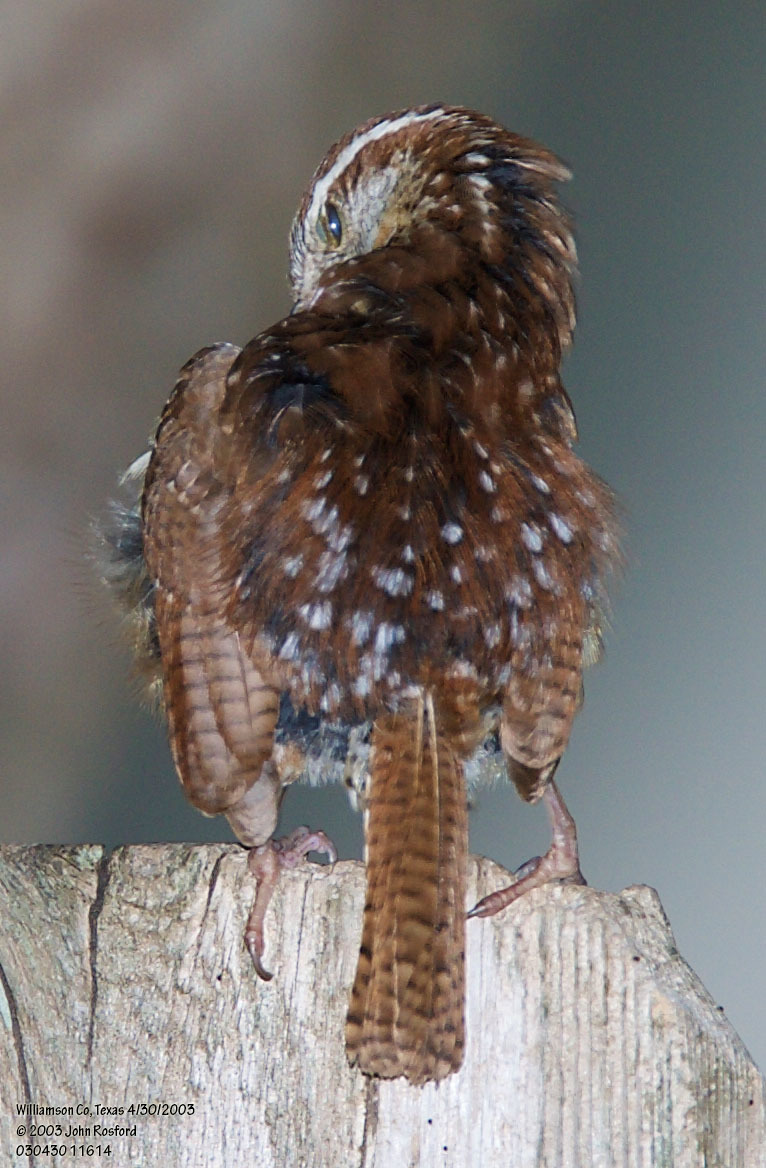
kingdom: Animalia
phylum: Chordata
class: Aves
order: Passeriformes
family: Troglodytidae
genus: Thryothorus
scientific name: Thryothorus ludovicianus
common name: Carolina wren
